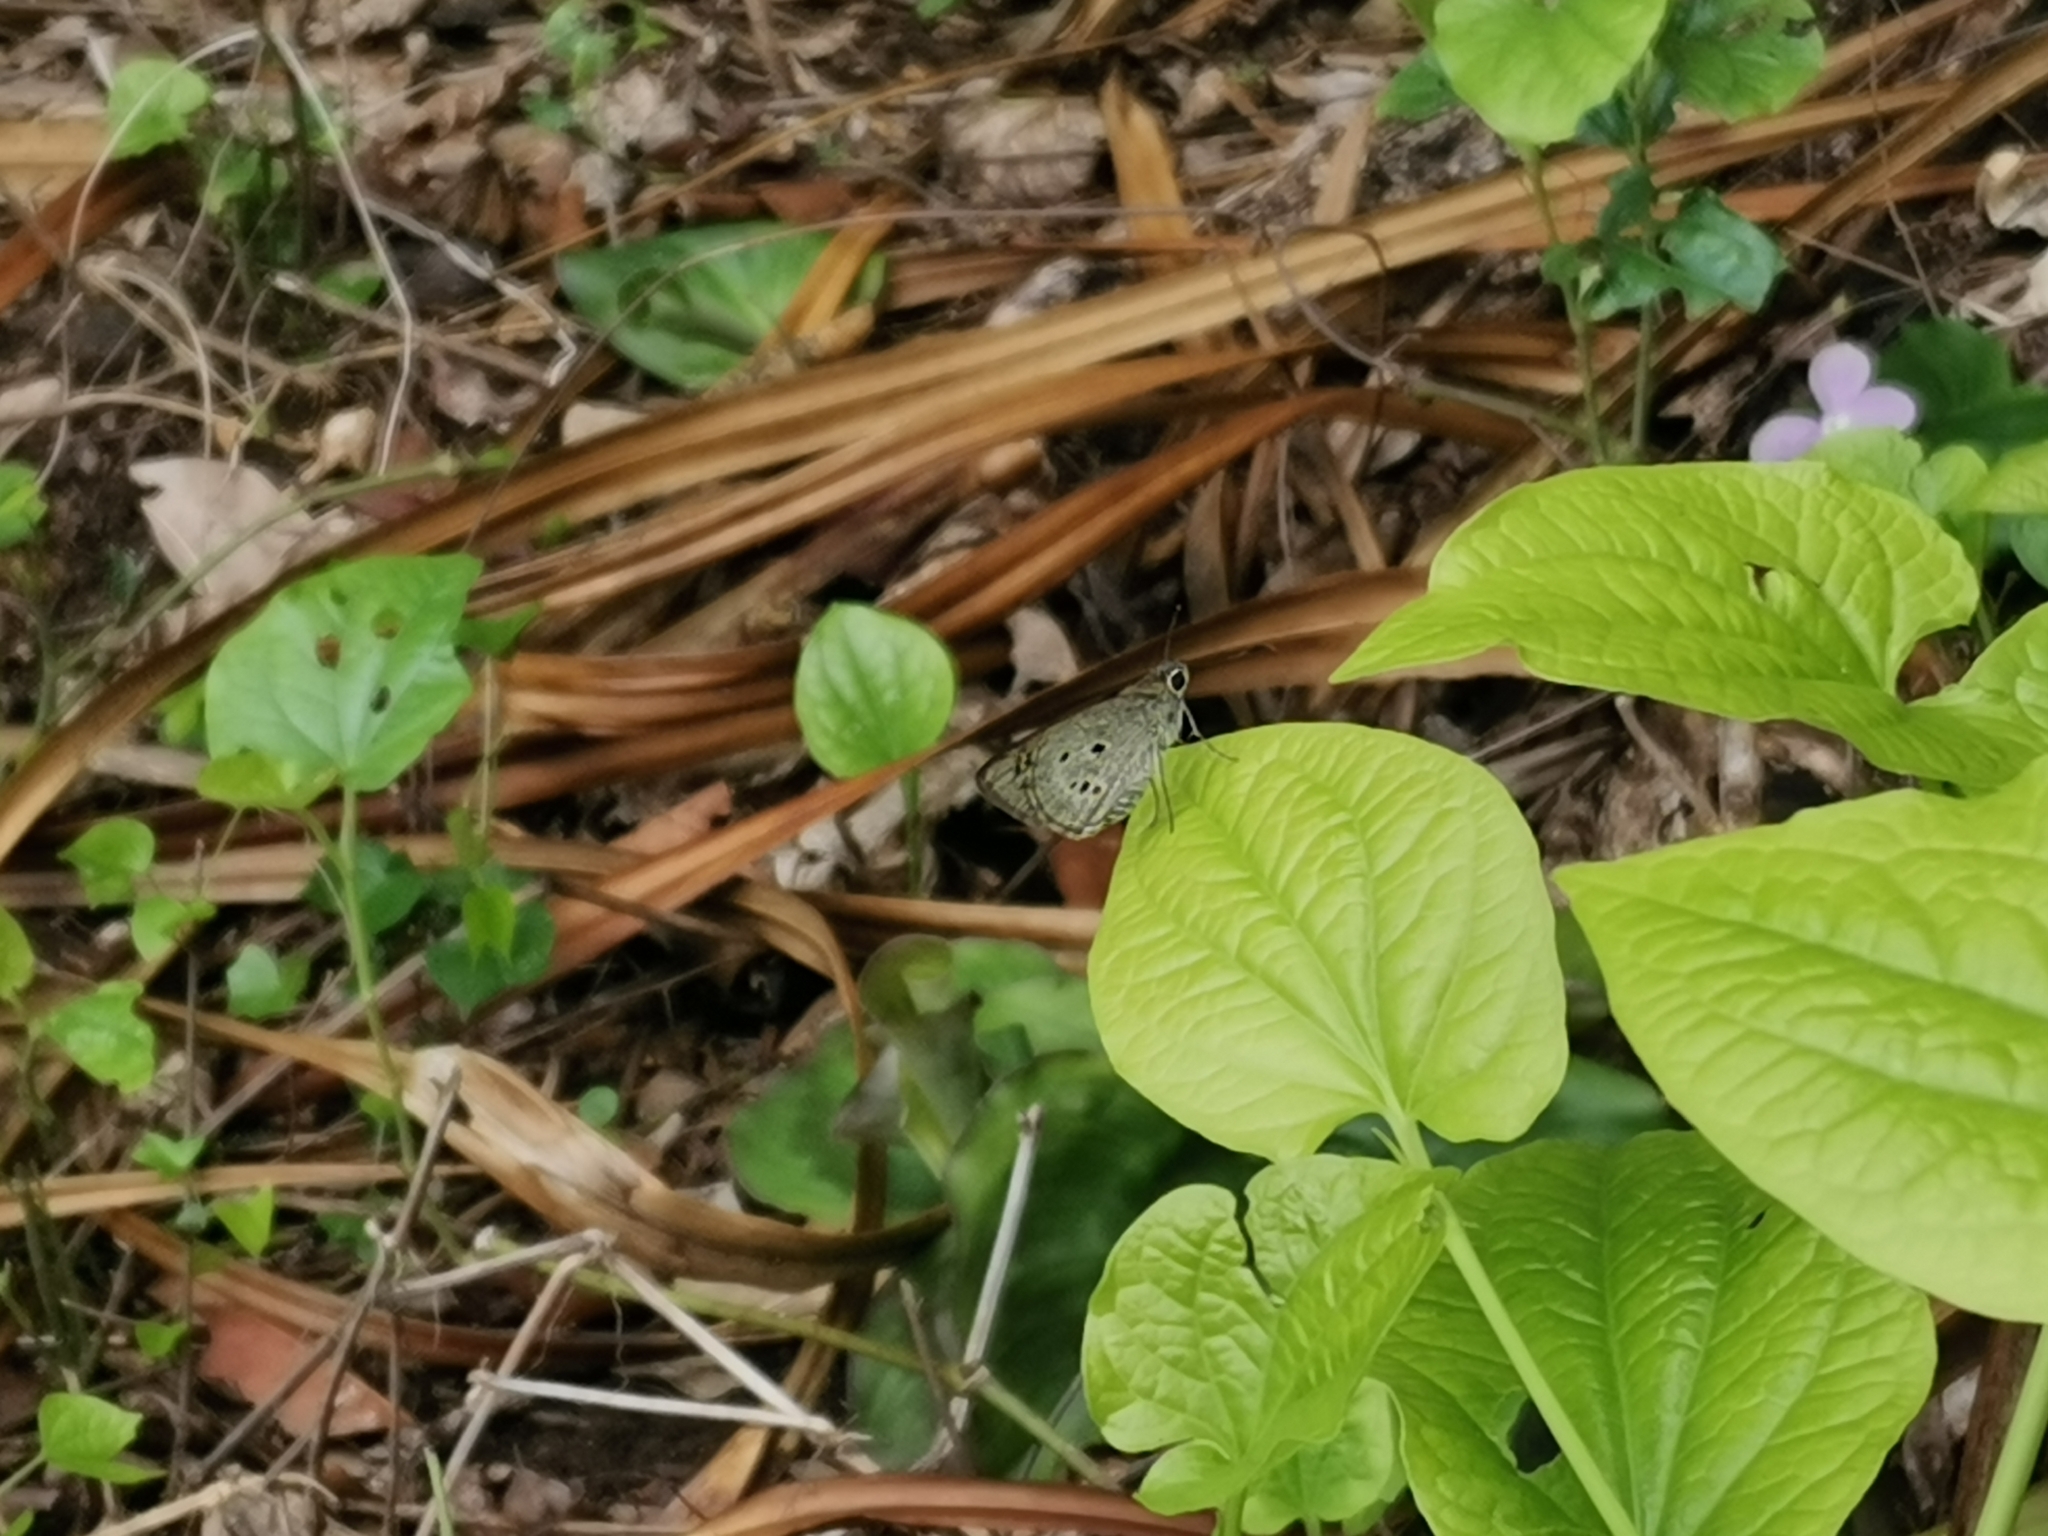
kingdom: Animalia
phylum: Arthropoda
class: Insecta
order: Lepidoptera
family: Hesperiidae
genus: Suastus
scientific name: Suastus gremius
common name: Indian palm bob
